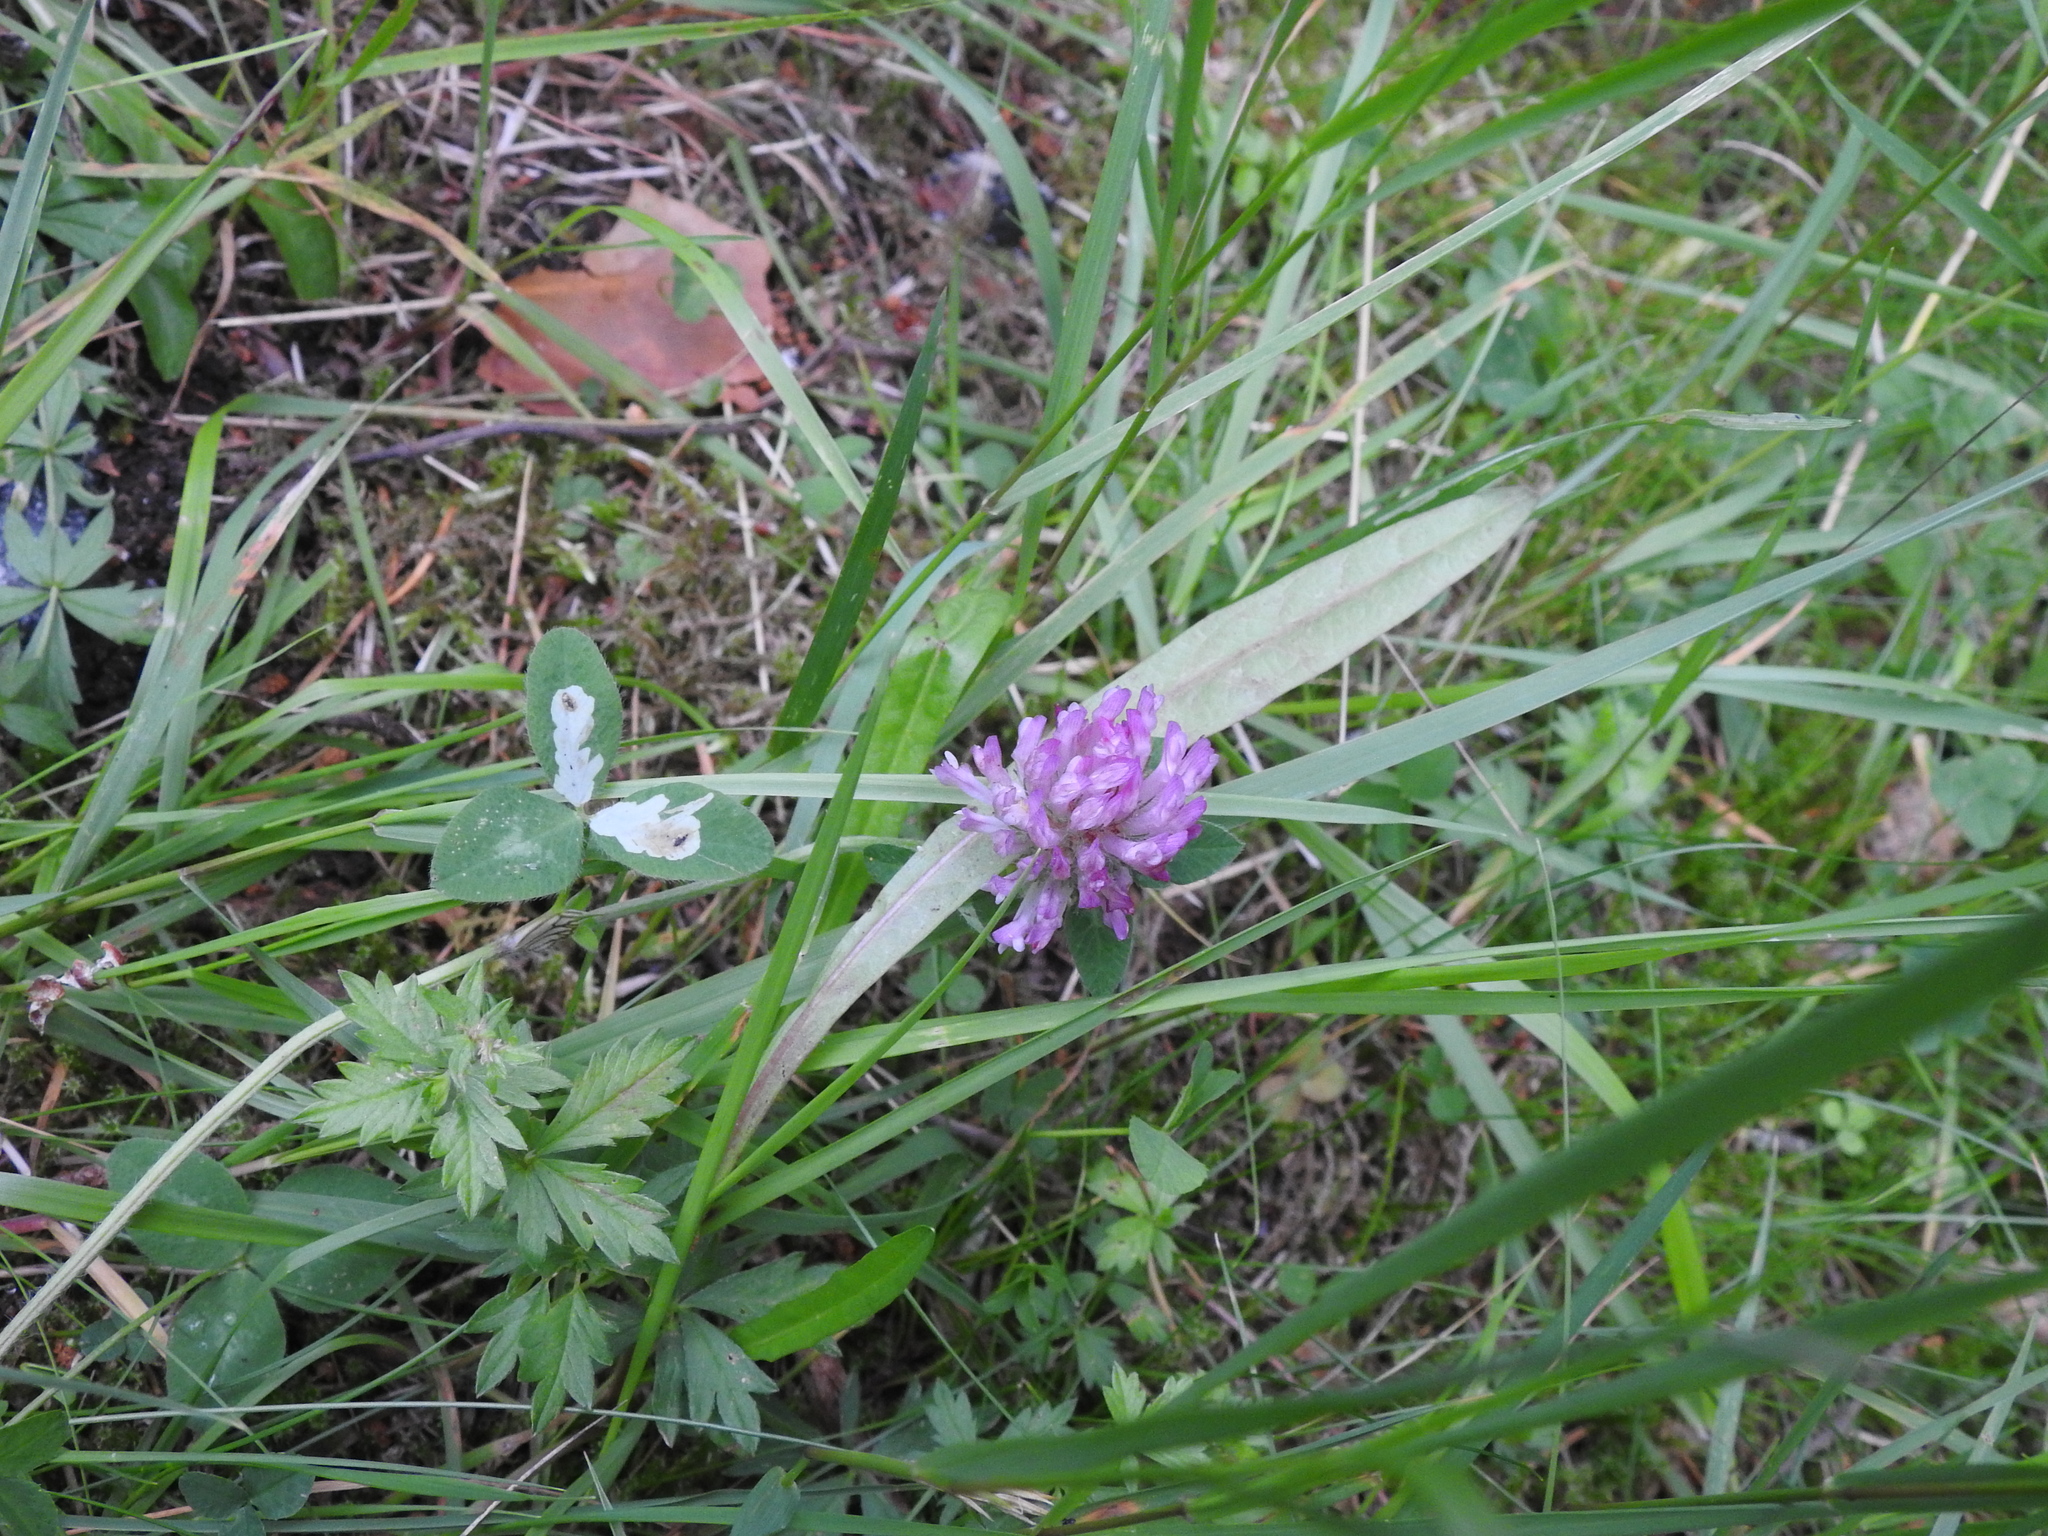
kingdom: Plantae
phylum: Tracheophyta
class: Magnoliopsida
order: Fabales
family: Fabaceae
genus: Trifolium
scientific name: Trifolium pratense
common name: Red clover
